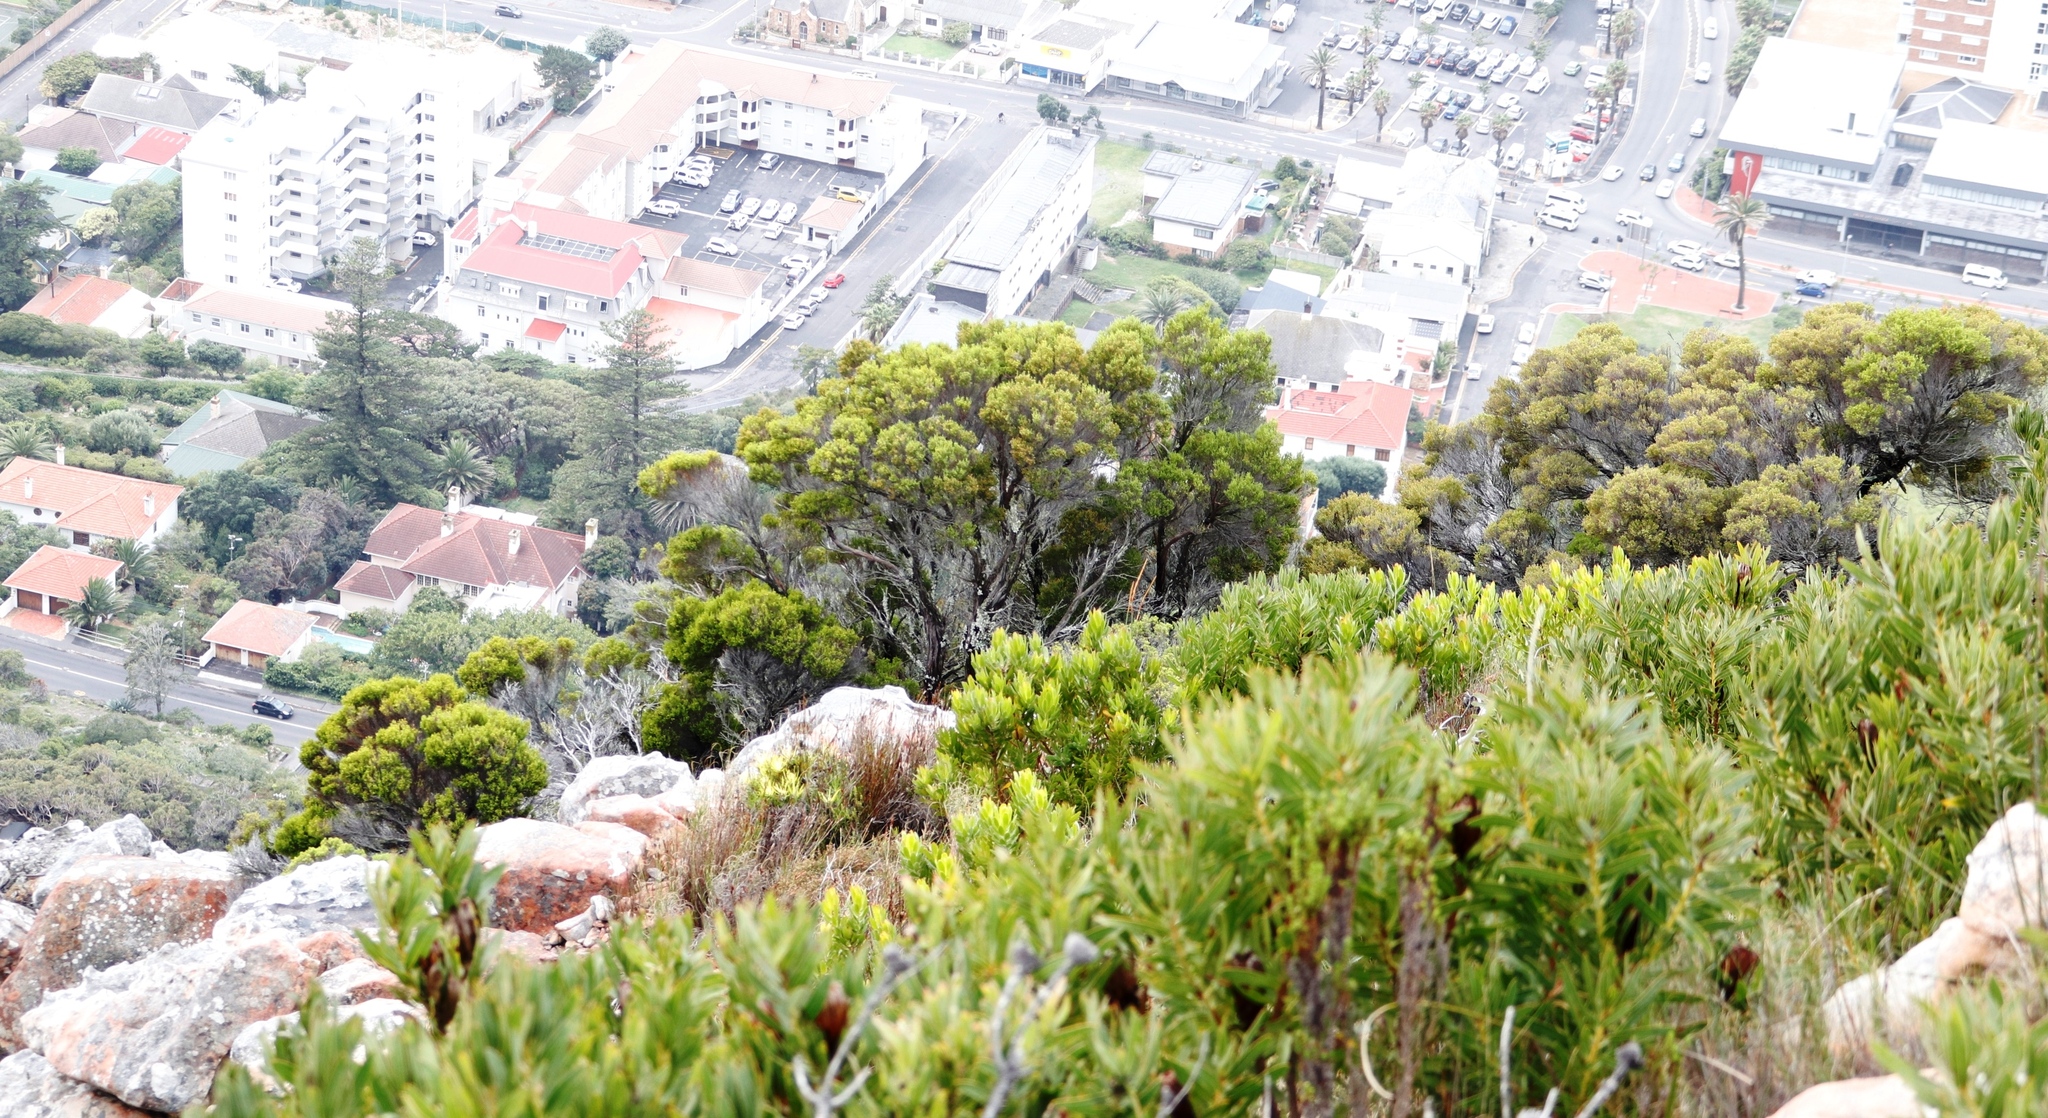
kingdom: Plantae
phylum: Tracheophyta
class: Magnoliopsida
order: Ericales
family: Ericaceae
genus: Erica
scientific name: Erica tristis
